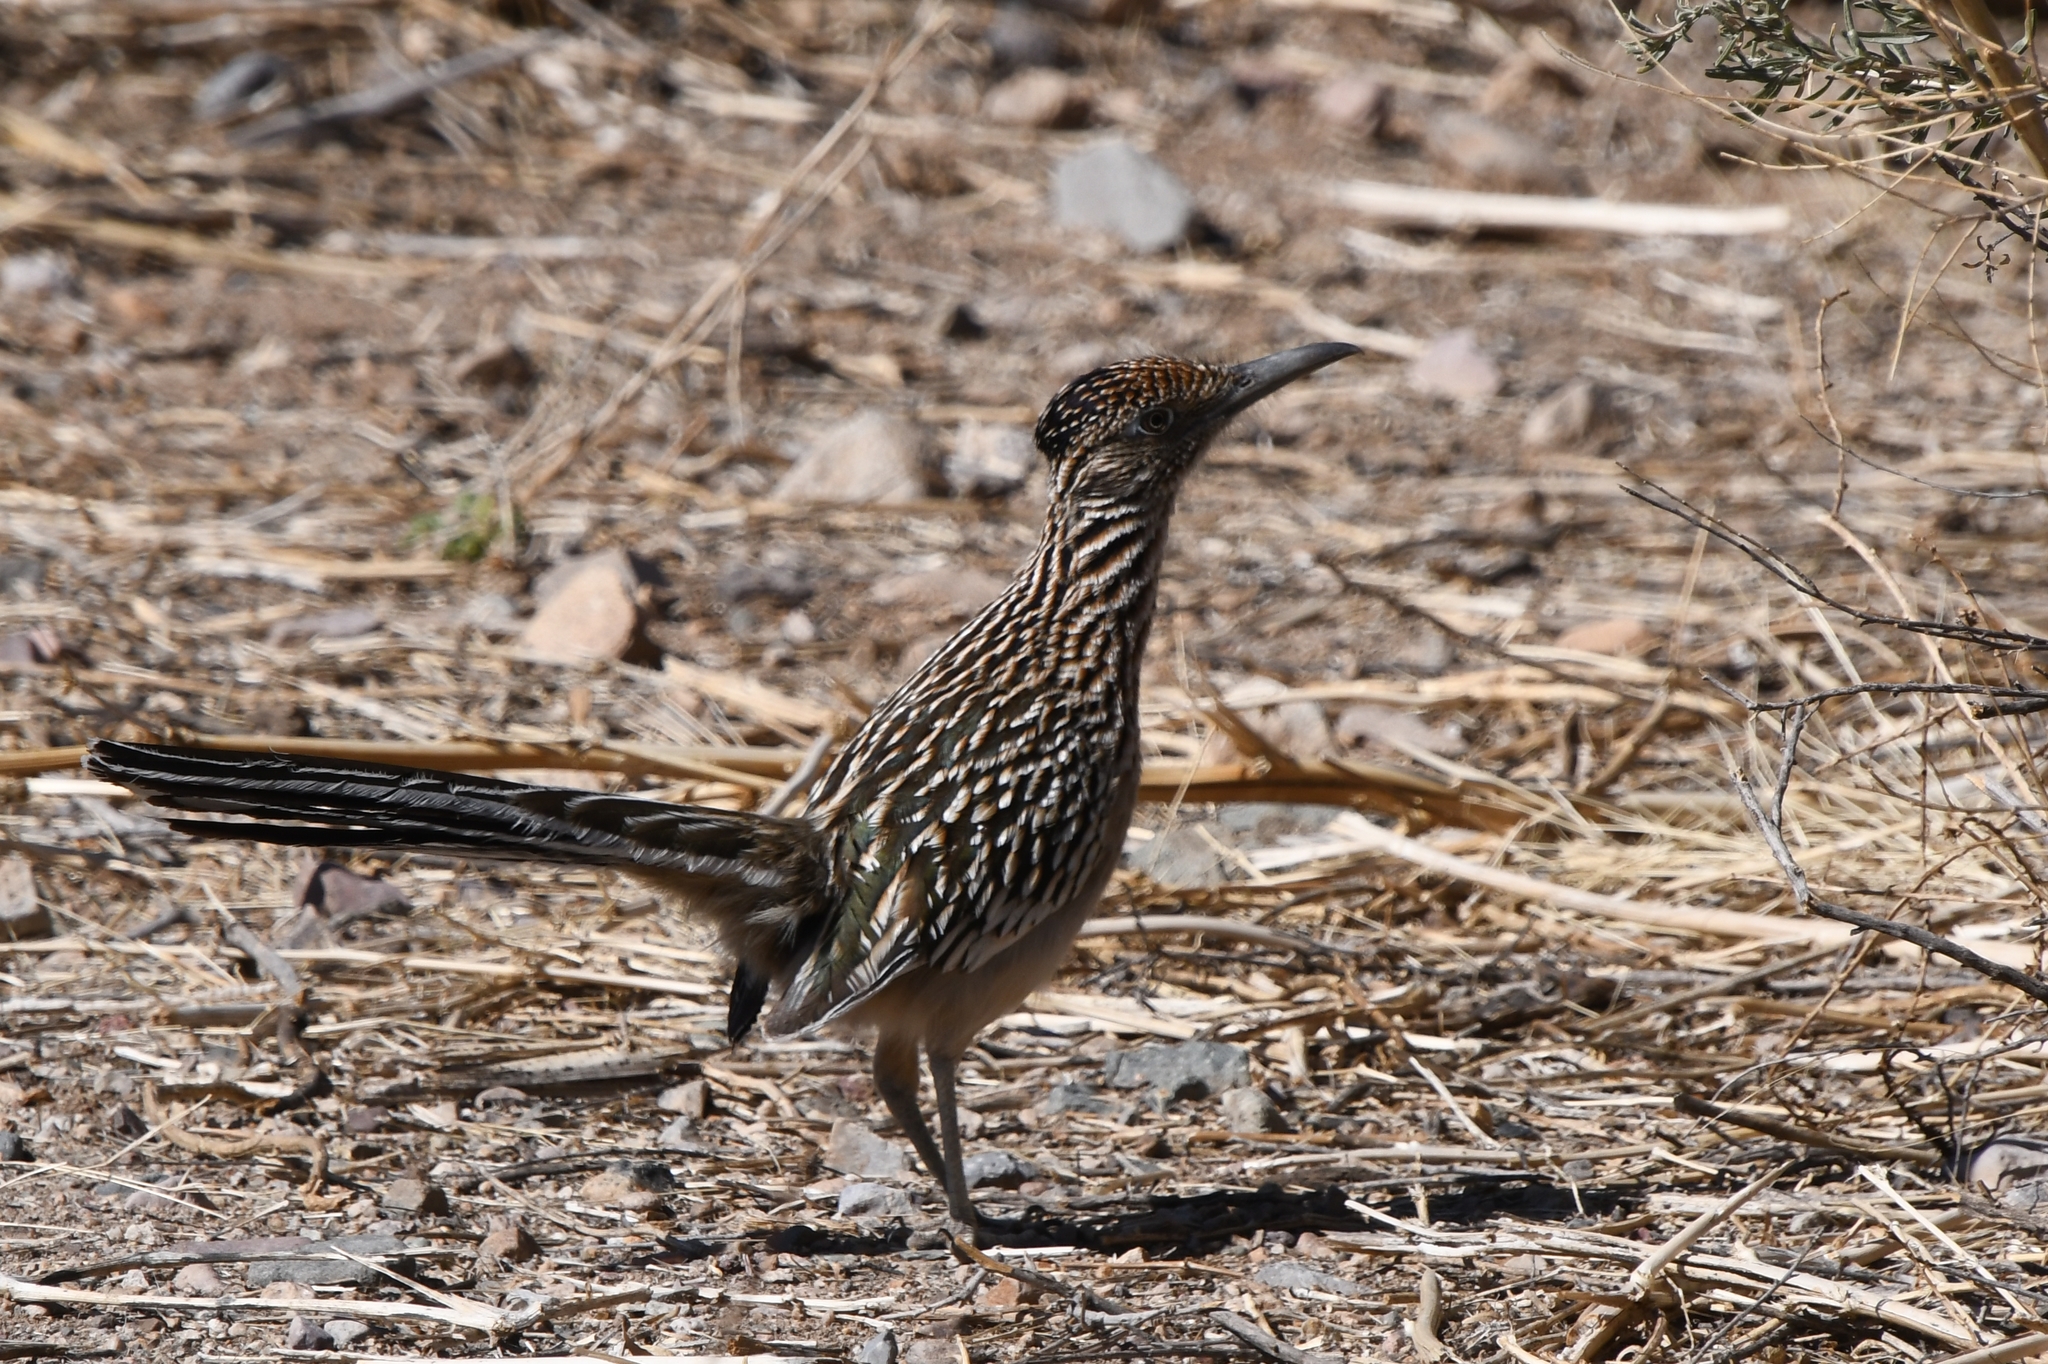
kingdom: Animalia
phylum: Chordata
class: Aves
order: Cuculiformes
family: Cuculidae
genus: Geococcyx
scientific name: Geococcyx californianus
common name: Greater roadrunner
